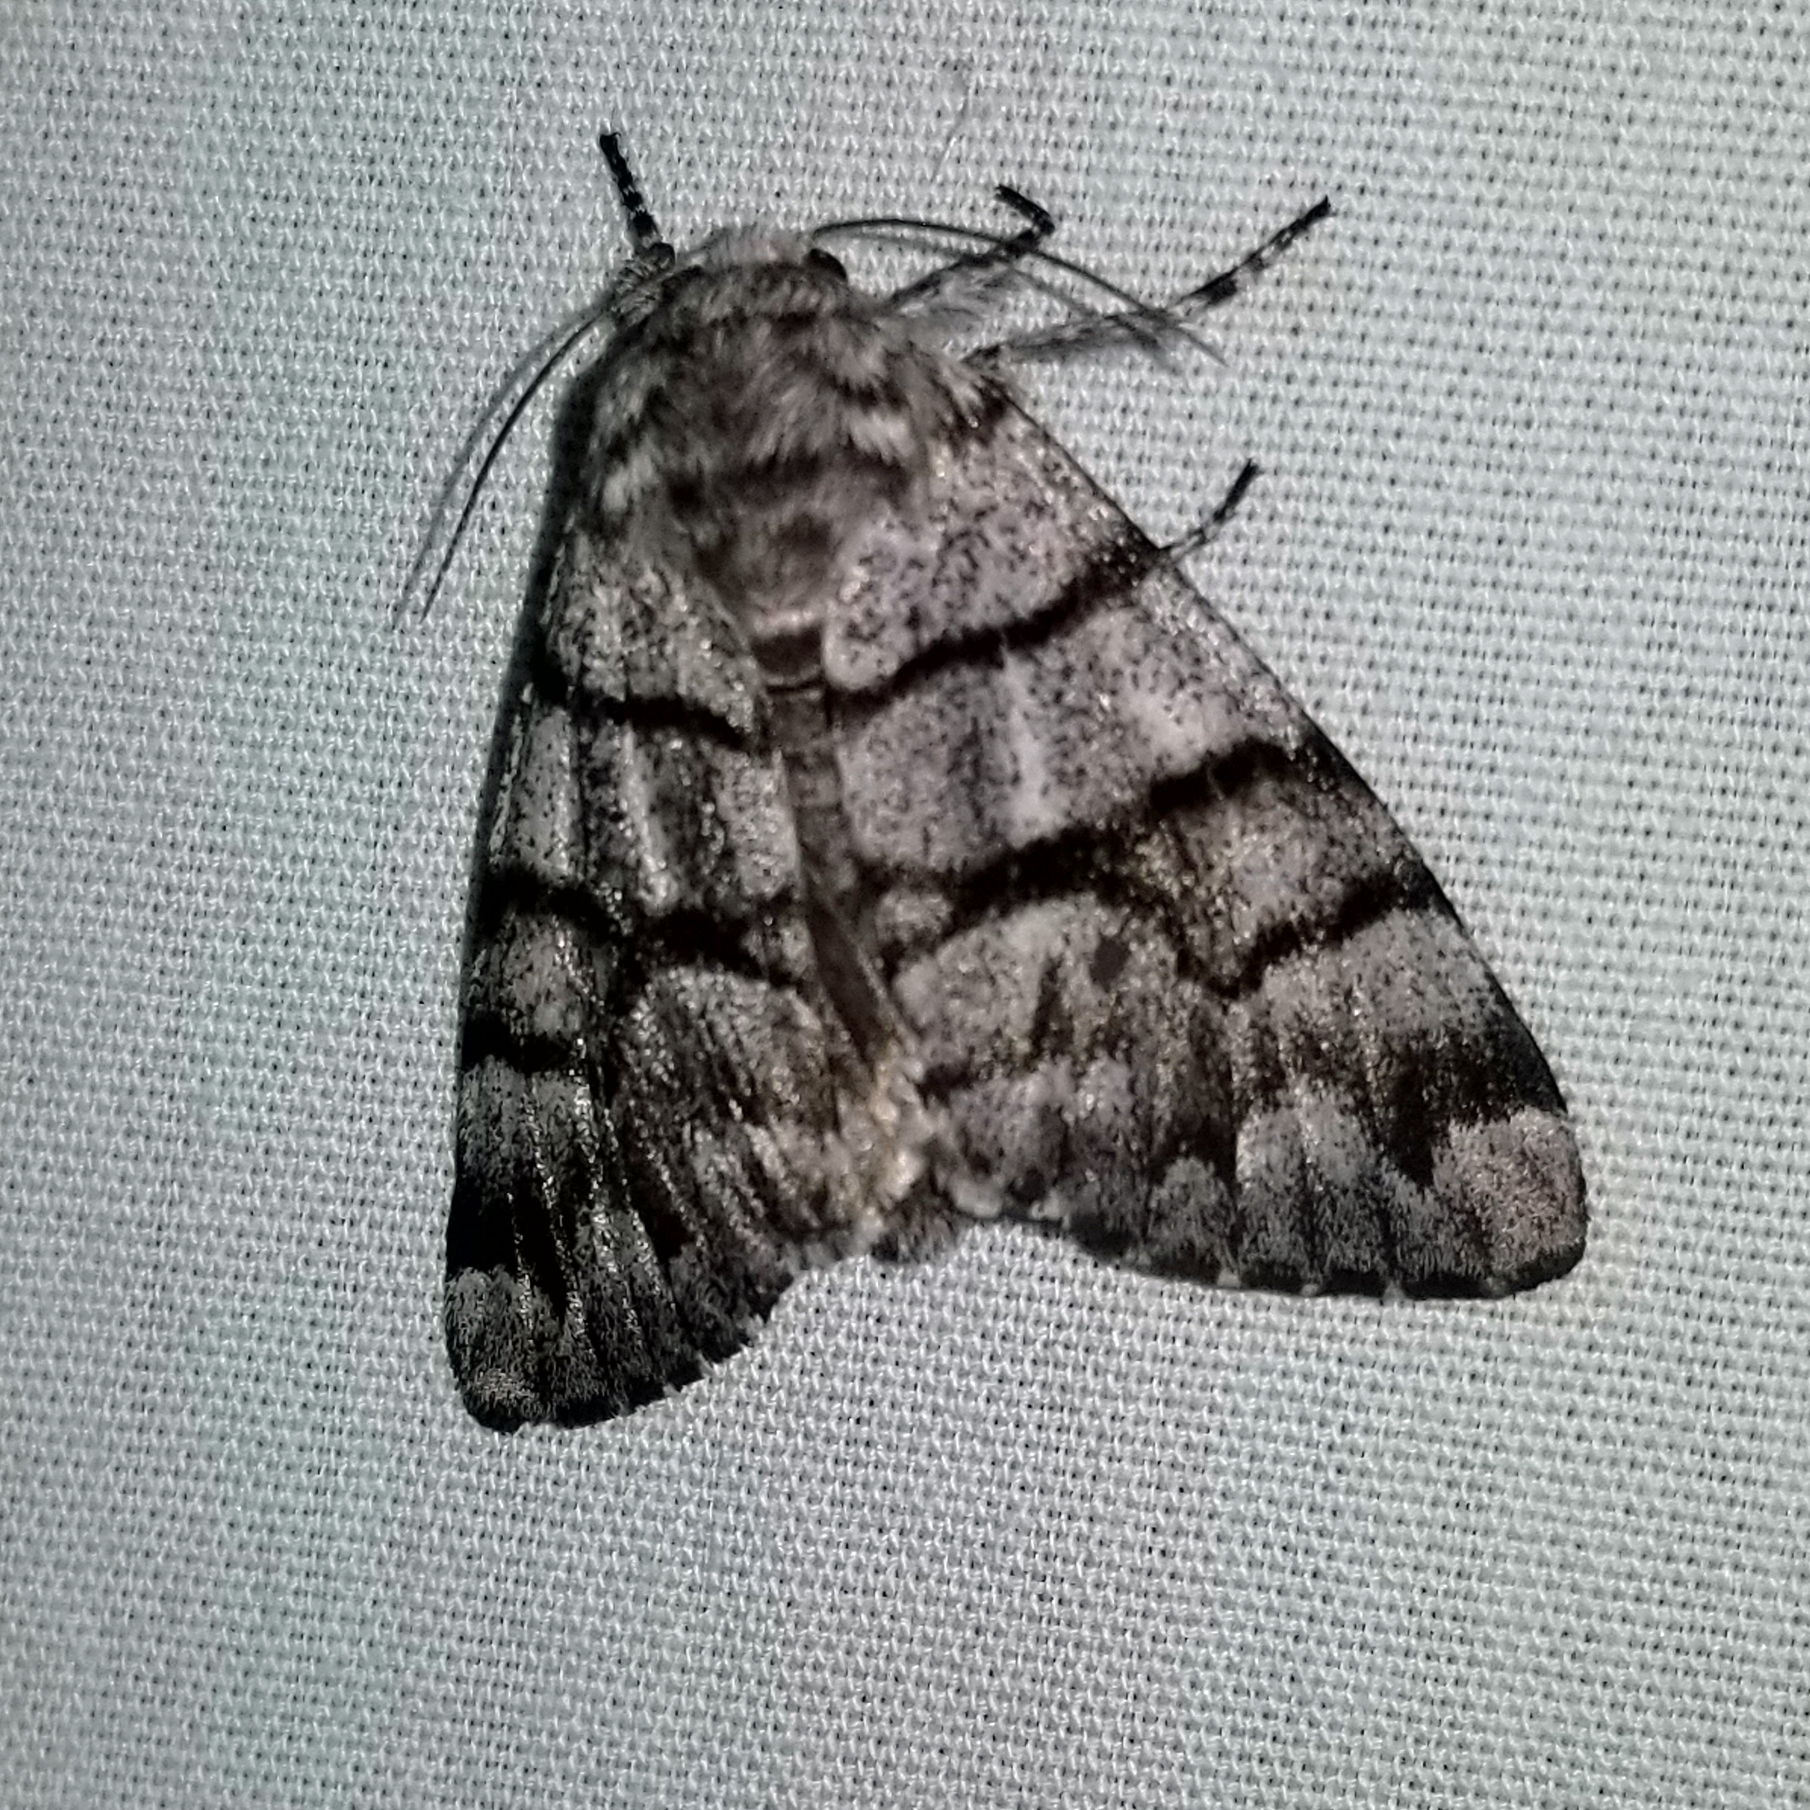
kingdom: Animalia
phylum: Arthropoda
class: Insecta
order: Lepidoptera
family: Noctuidae
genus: Panthea
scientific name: Panthea furcilla
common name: Eastern panthea moth
